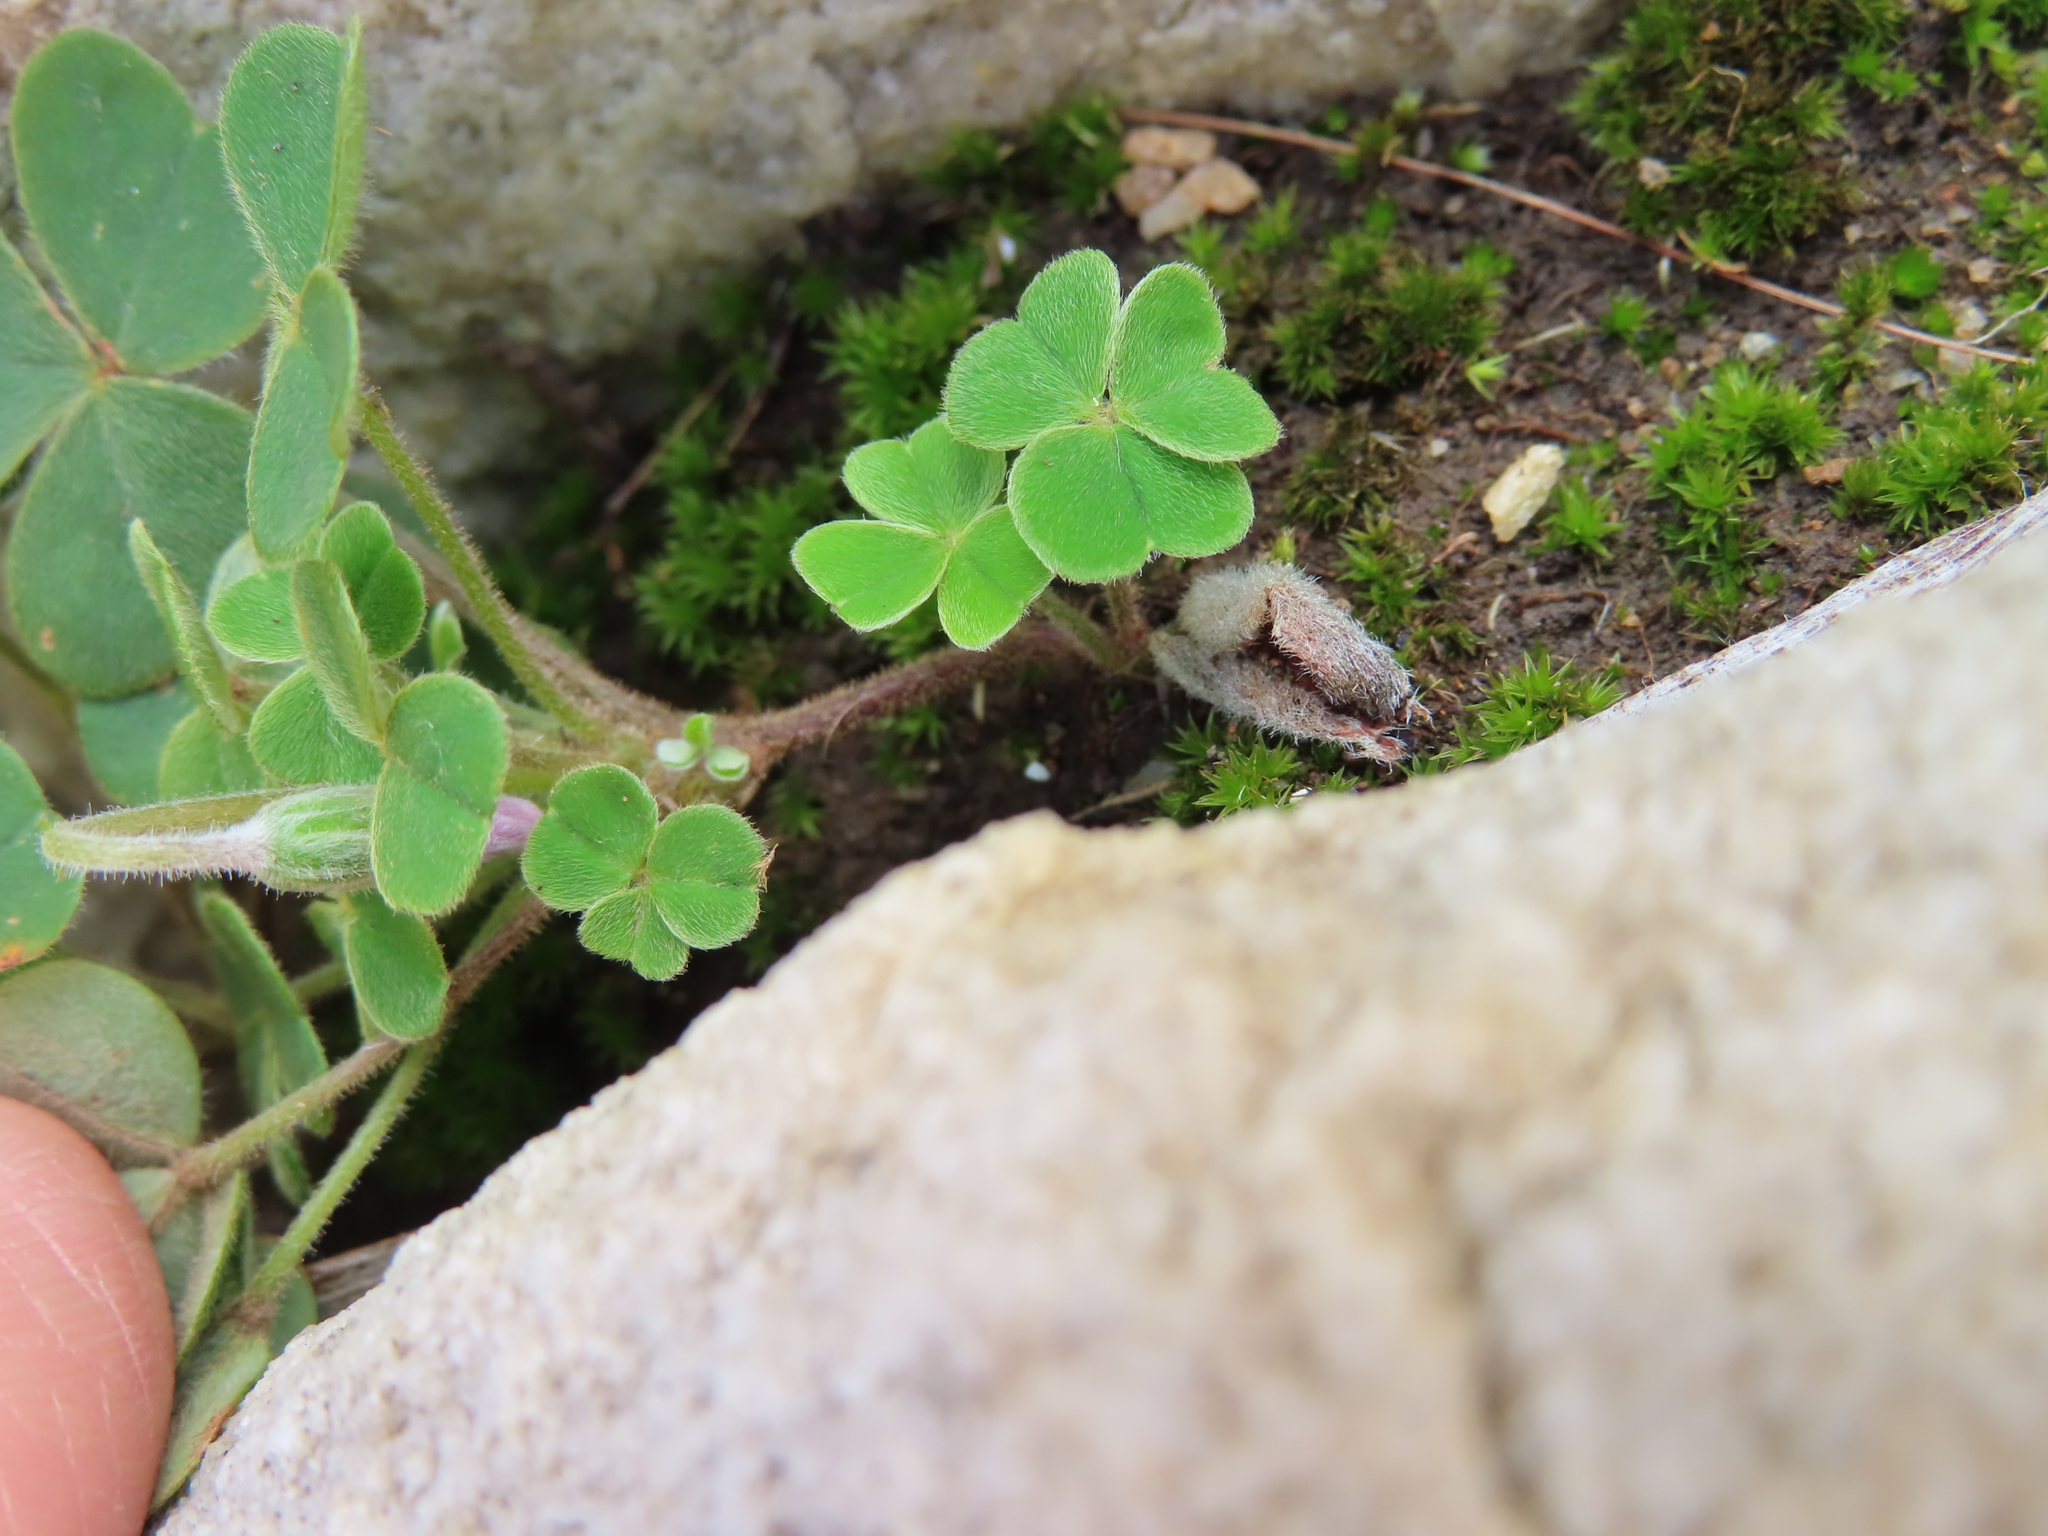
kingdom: Plantae
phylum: Tracheophyta
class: Magnoliopsida
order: Oxalidales
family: Oxalidaceae
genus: Oxalis
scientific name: Oxalis lanata
